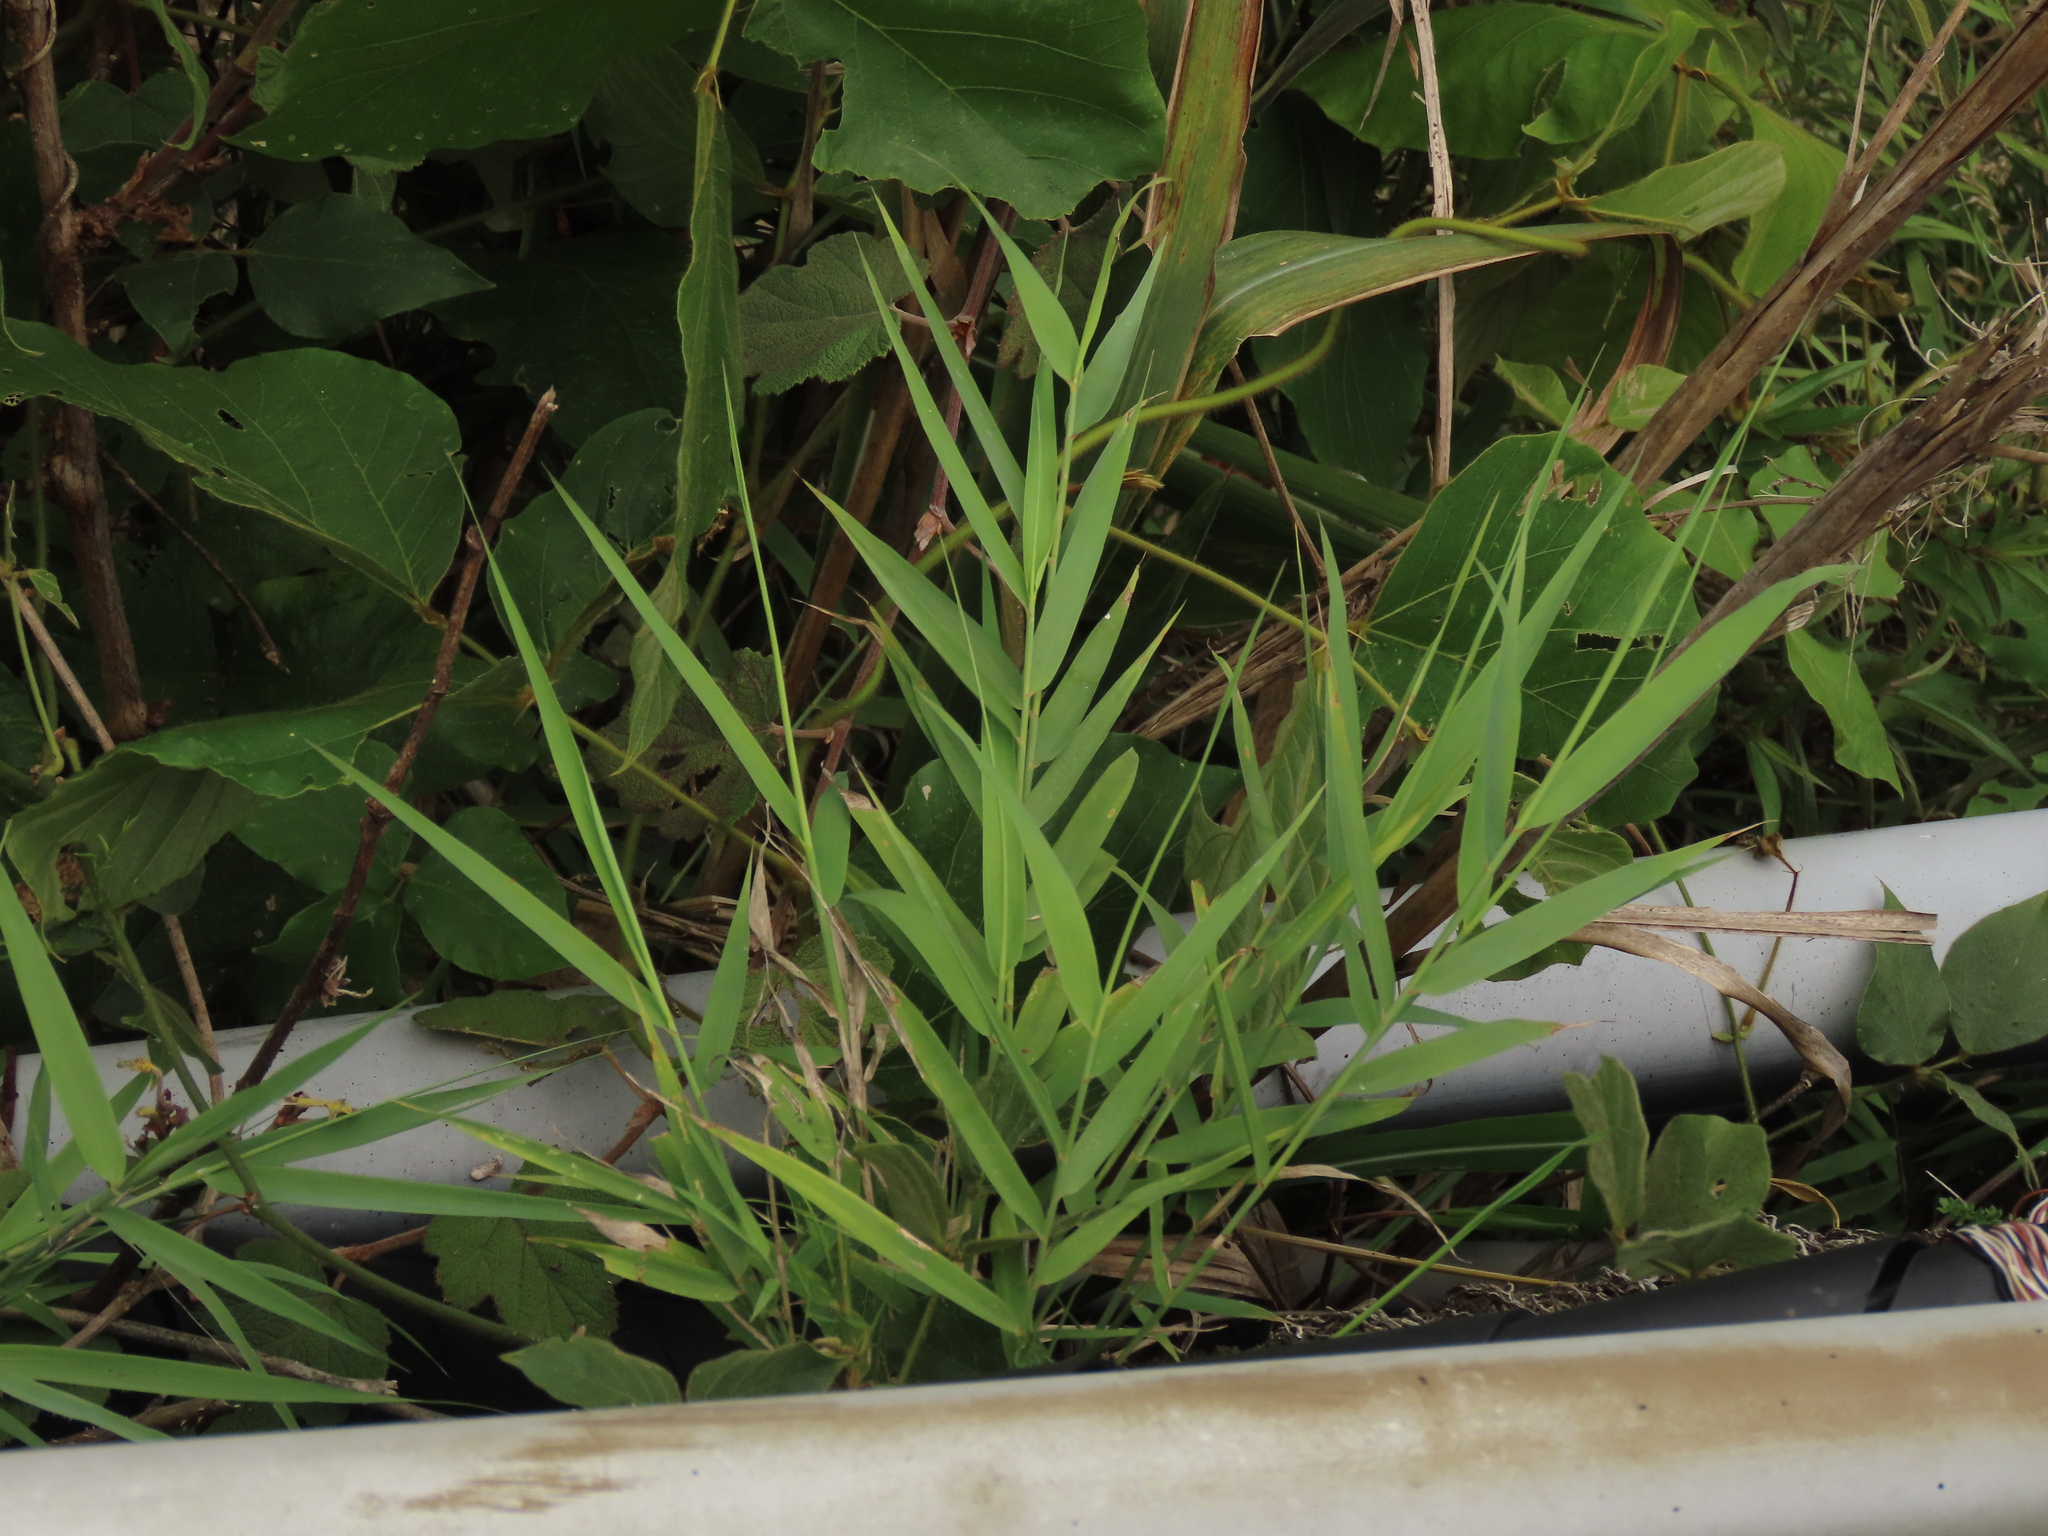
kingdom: Plantae
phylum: Tracheophyta
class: Liliopsida
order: Poales
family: Poaceae
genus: Arundo
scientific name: Arundo formosana
